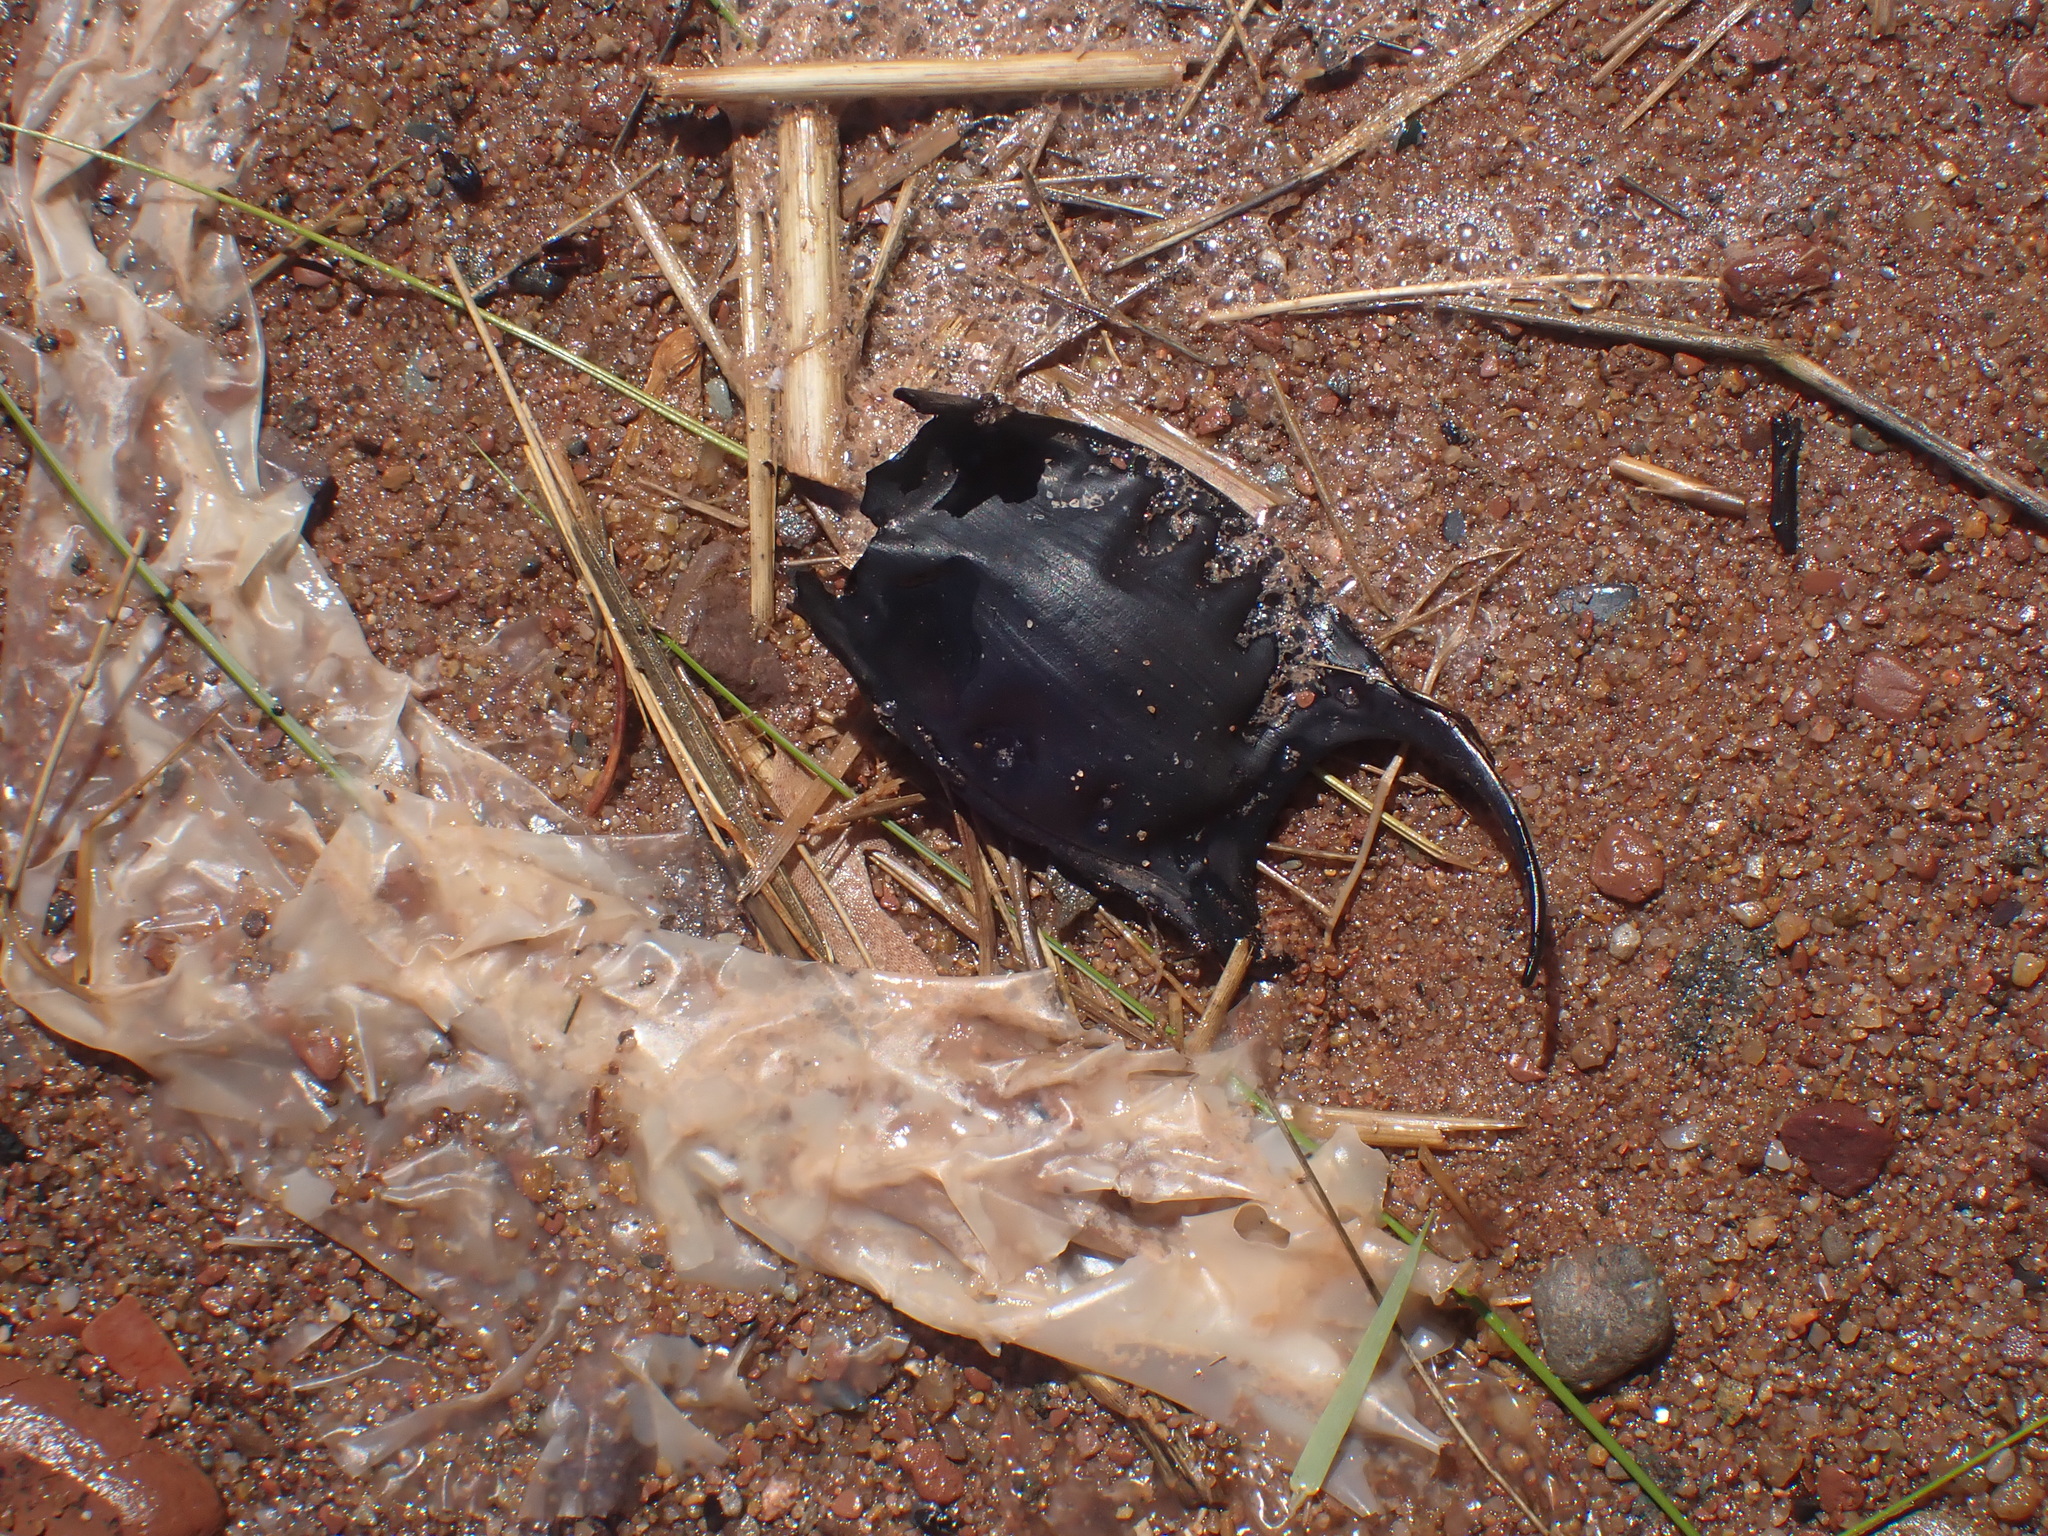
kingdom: Animalia
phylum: Chordata
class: Elasmobranchii
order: Rajiformes
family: Rajidae
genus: Leucoraja
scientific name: Leucoraja erinacea
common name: Little skate
